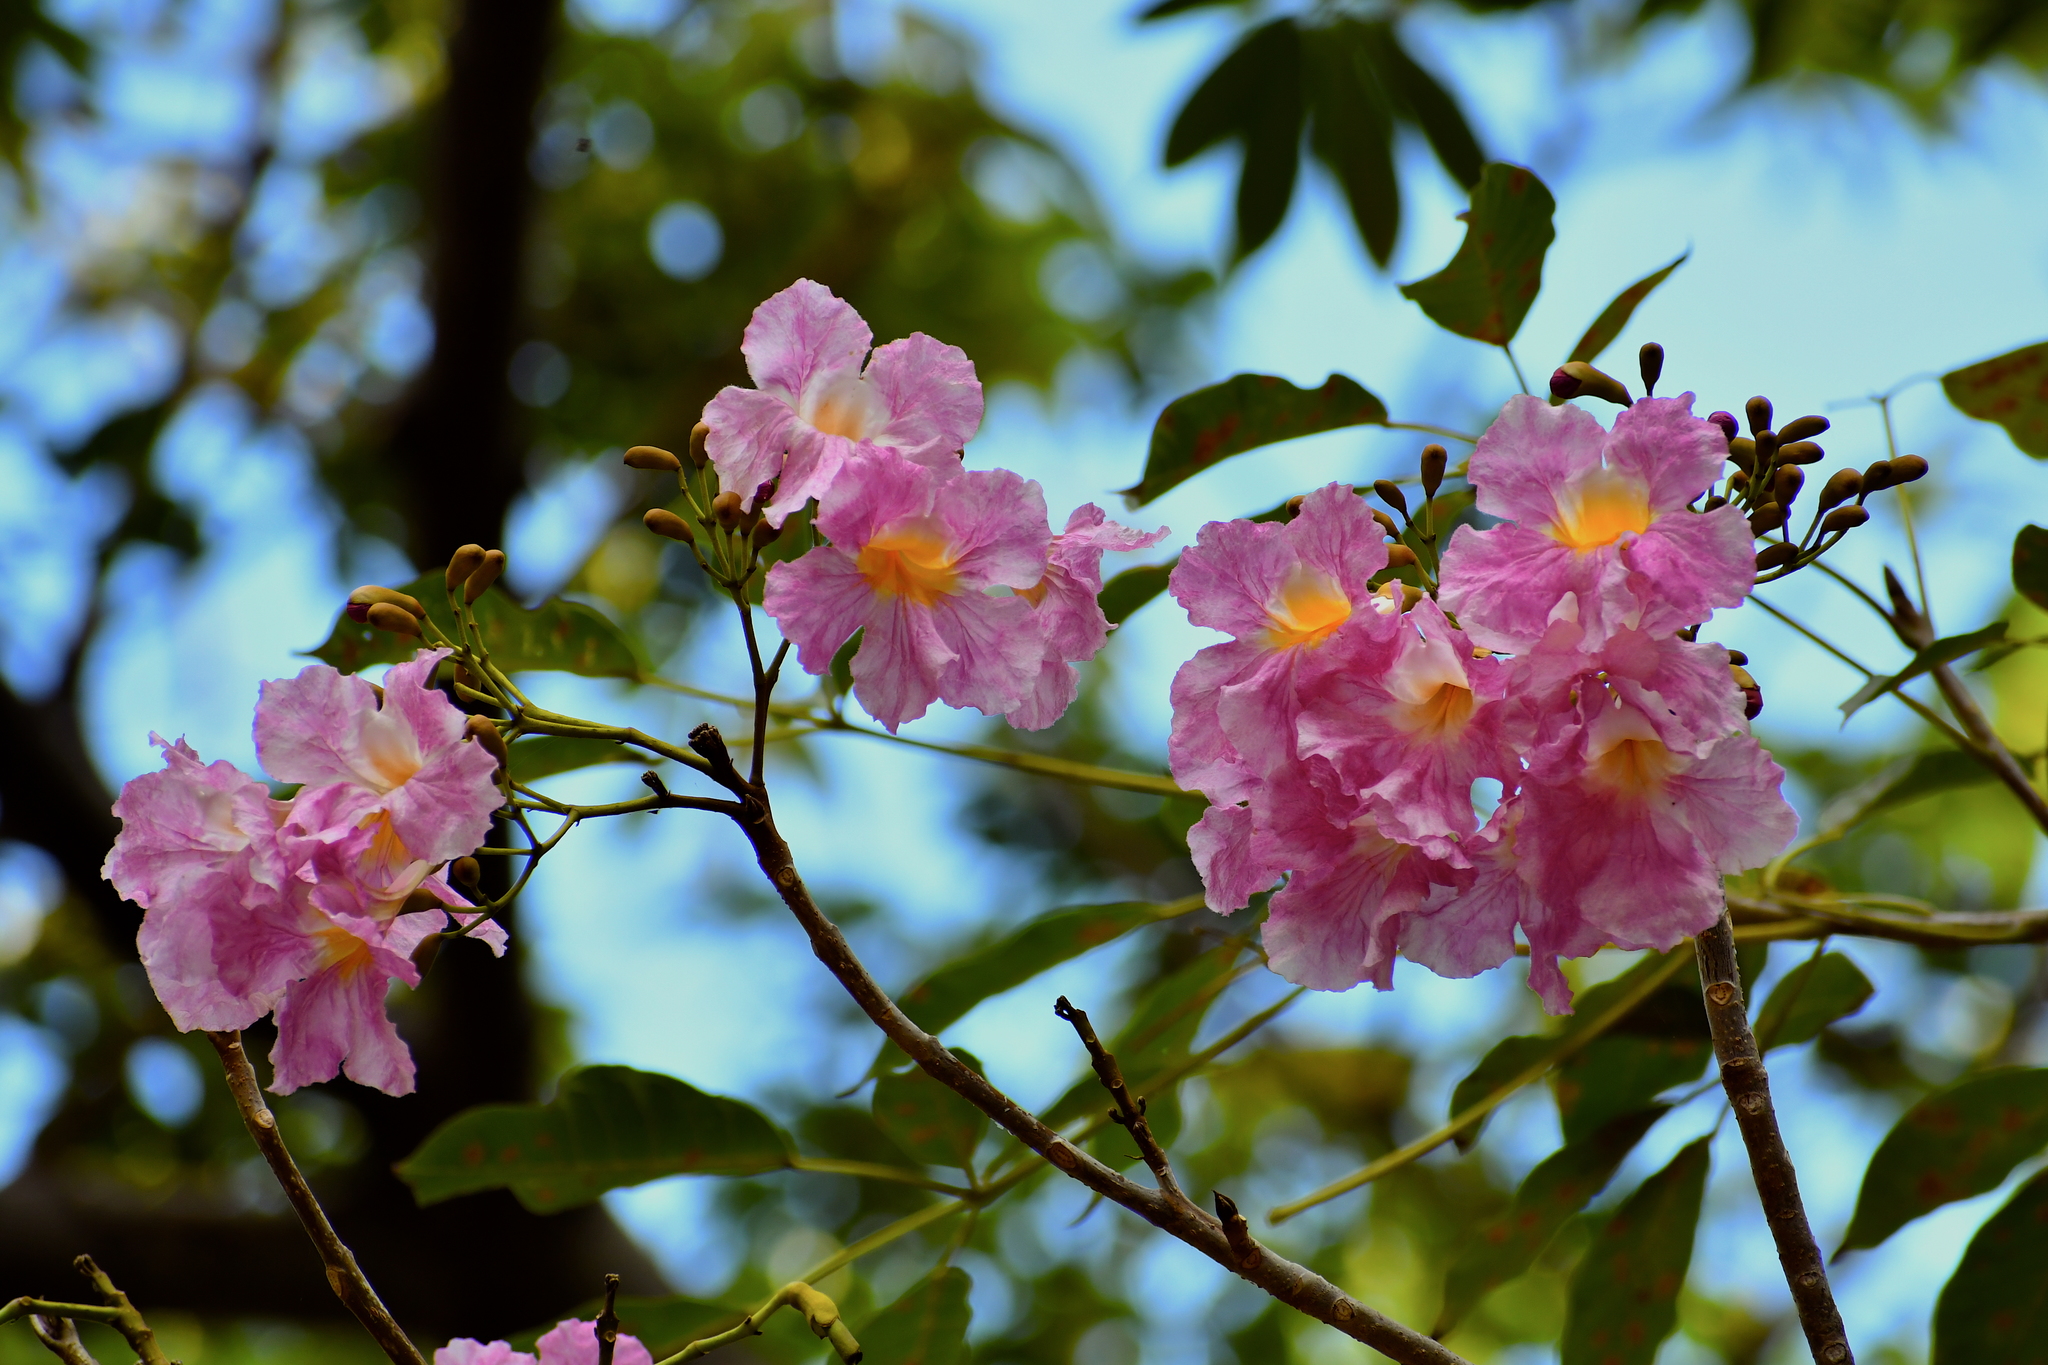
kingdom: Plantae
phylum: Tracheophyta
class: Magnoliopsida
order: Lamiales
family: Bignoniaceae
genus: Tabebuia
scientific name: Tabebuia rosea
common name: Pink poui
